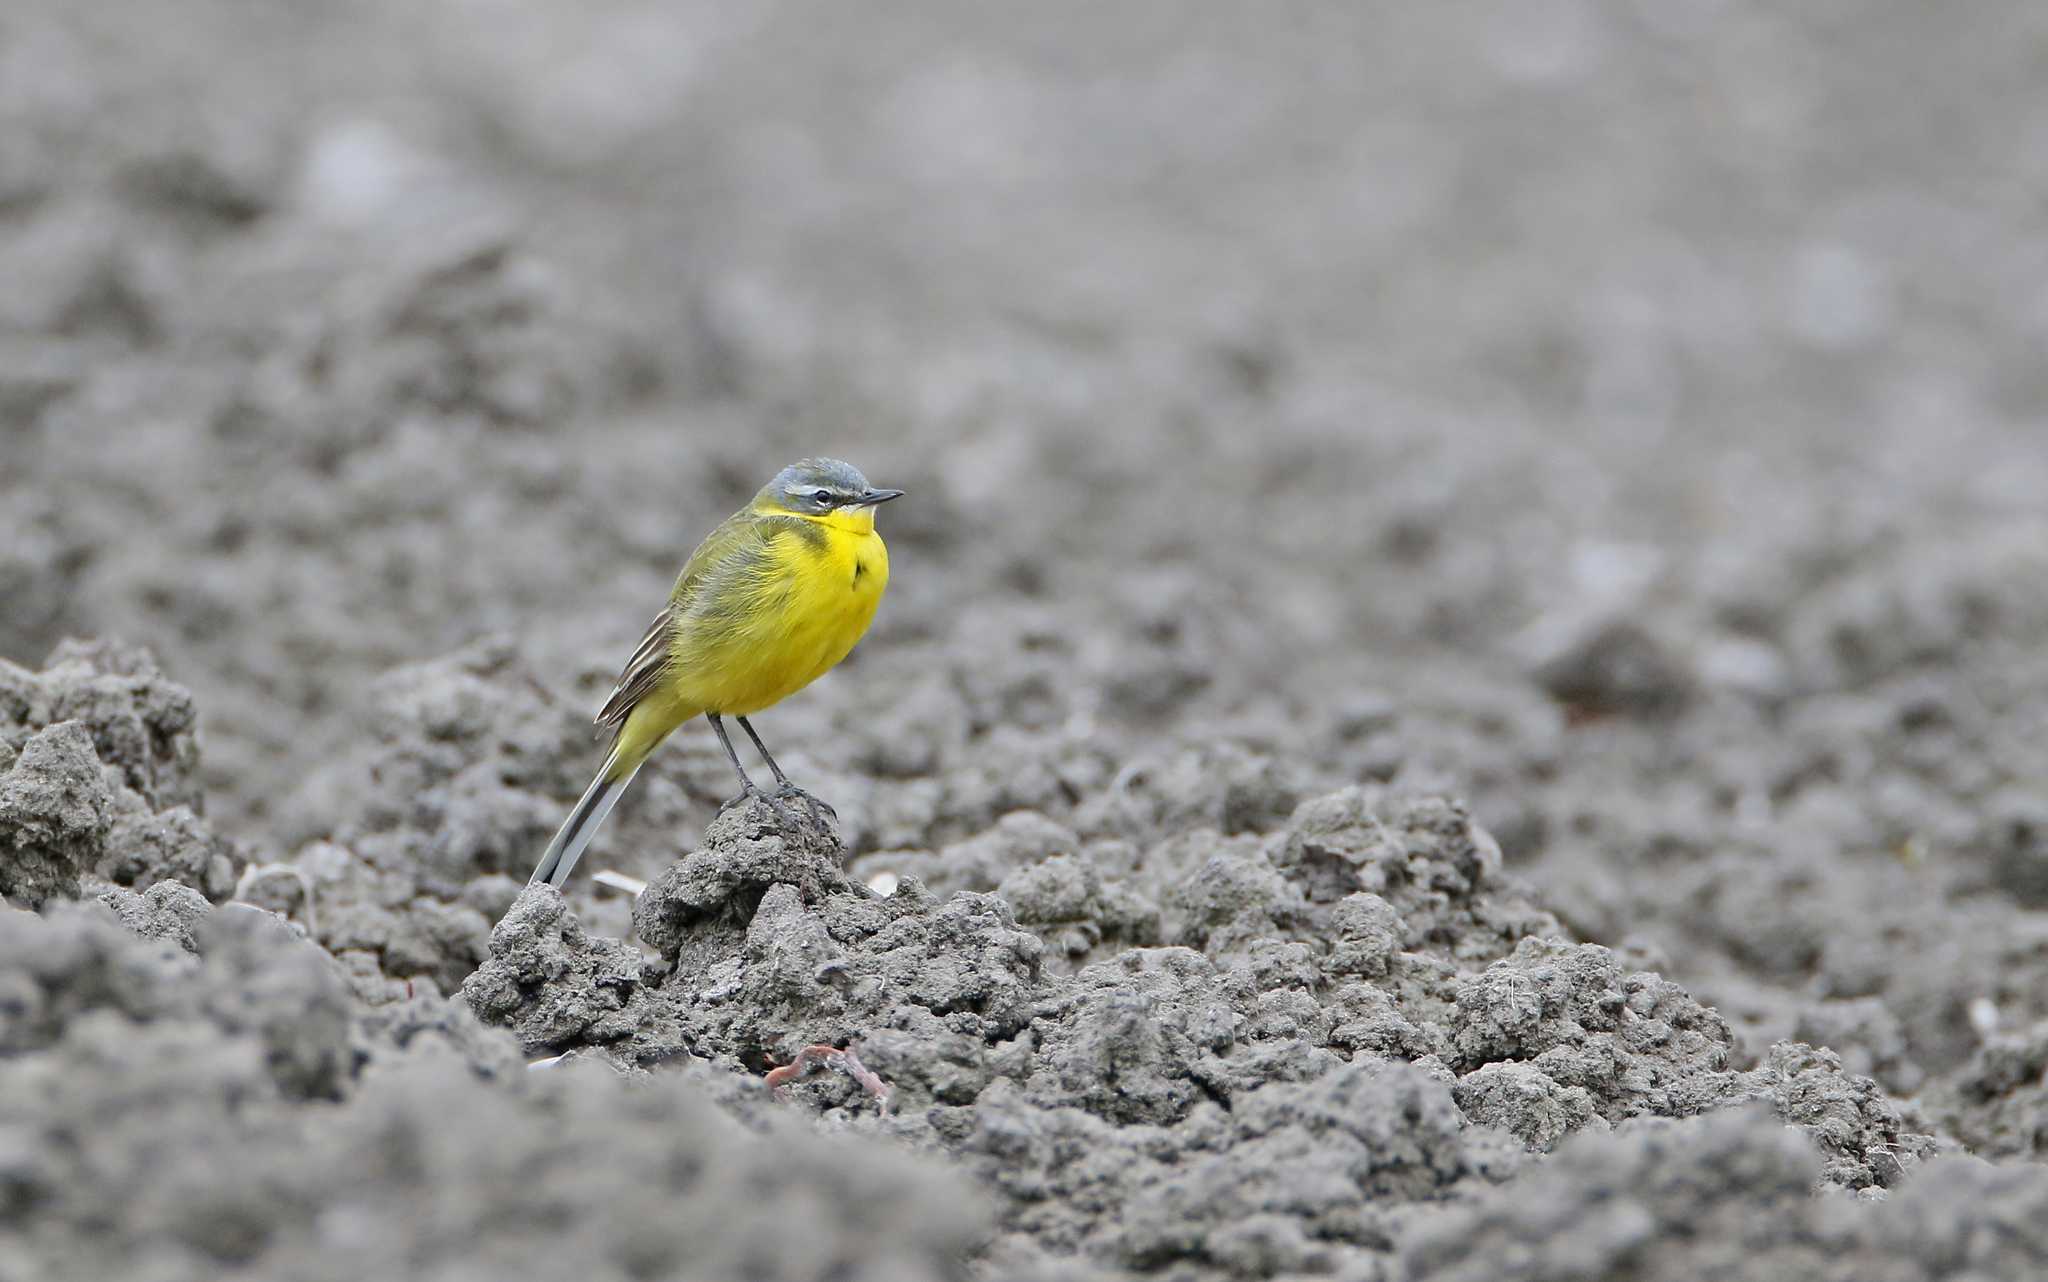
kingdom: Animalia
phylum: Chordata
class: Aves
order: Passeriformes
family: Motacillidae
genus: Motacilla
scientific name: Motacilla flava
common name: Western yellow wagtail
